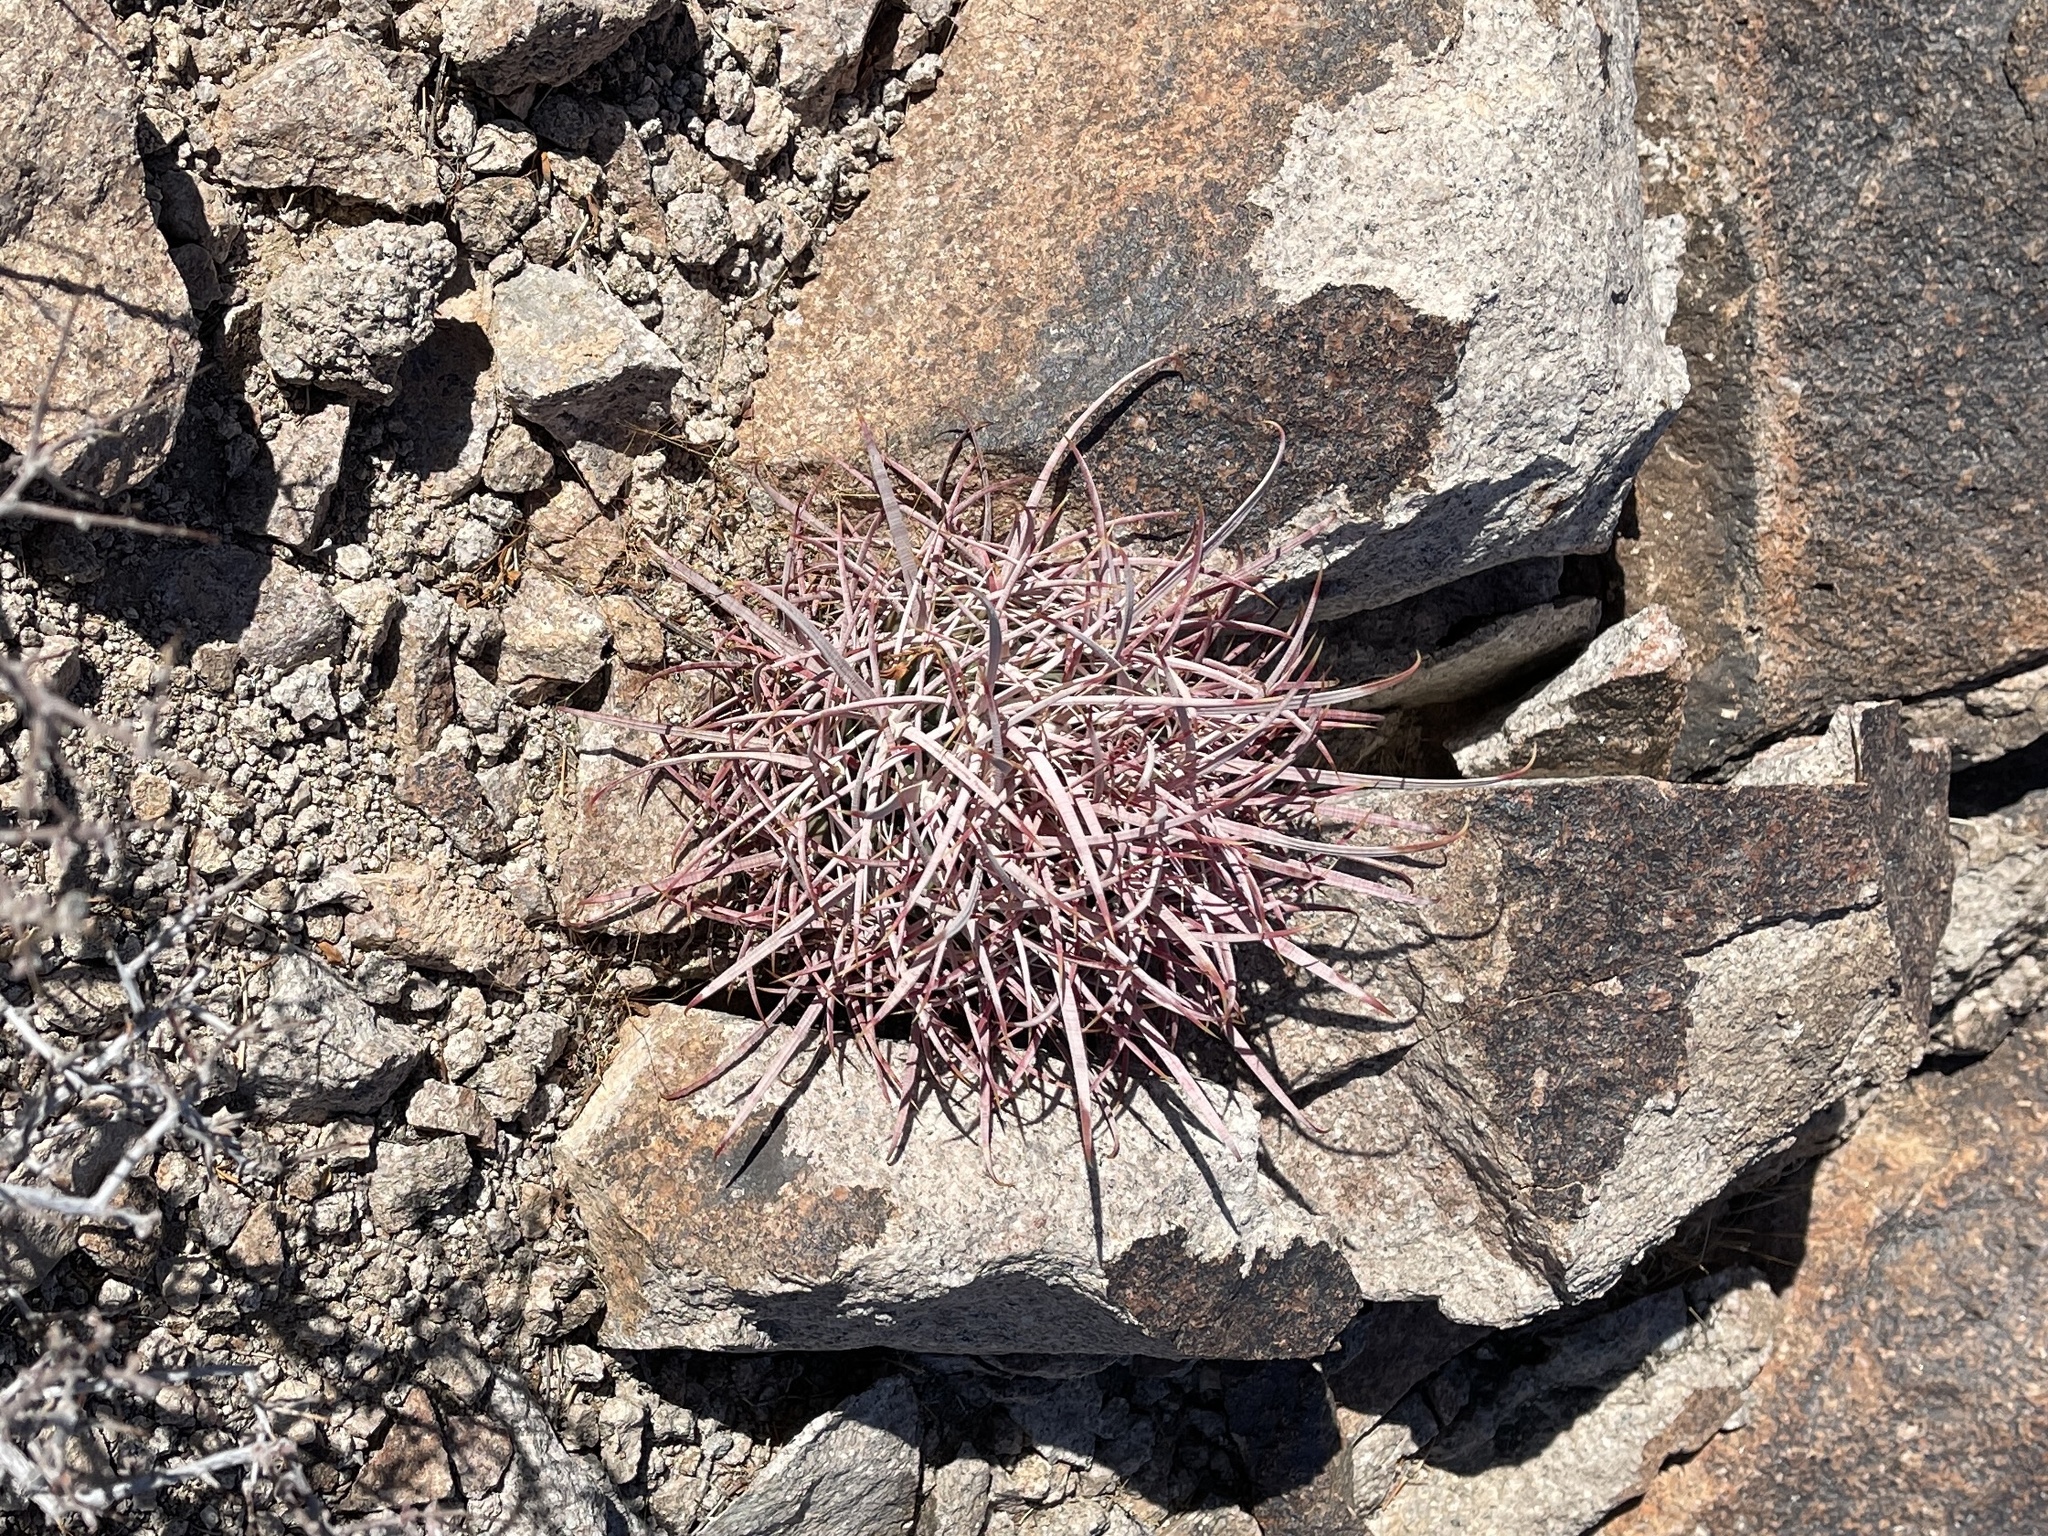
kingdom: Plantae
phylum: Tracheophyta
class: Magnoliopsida
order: Caryophyllales
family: Cactaceae
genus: Ferocactus
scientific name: Ferocactus cylindraceus
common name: California barrel cactus
